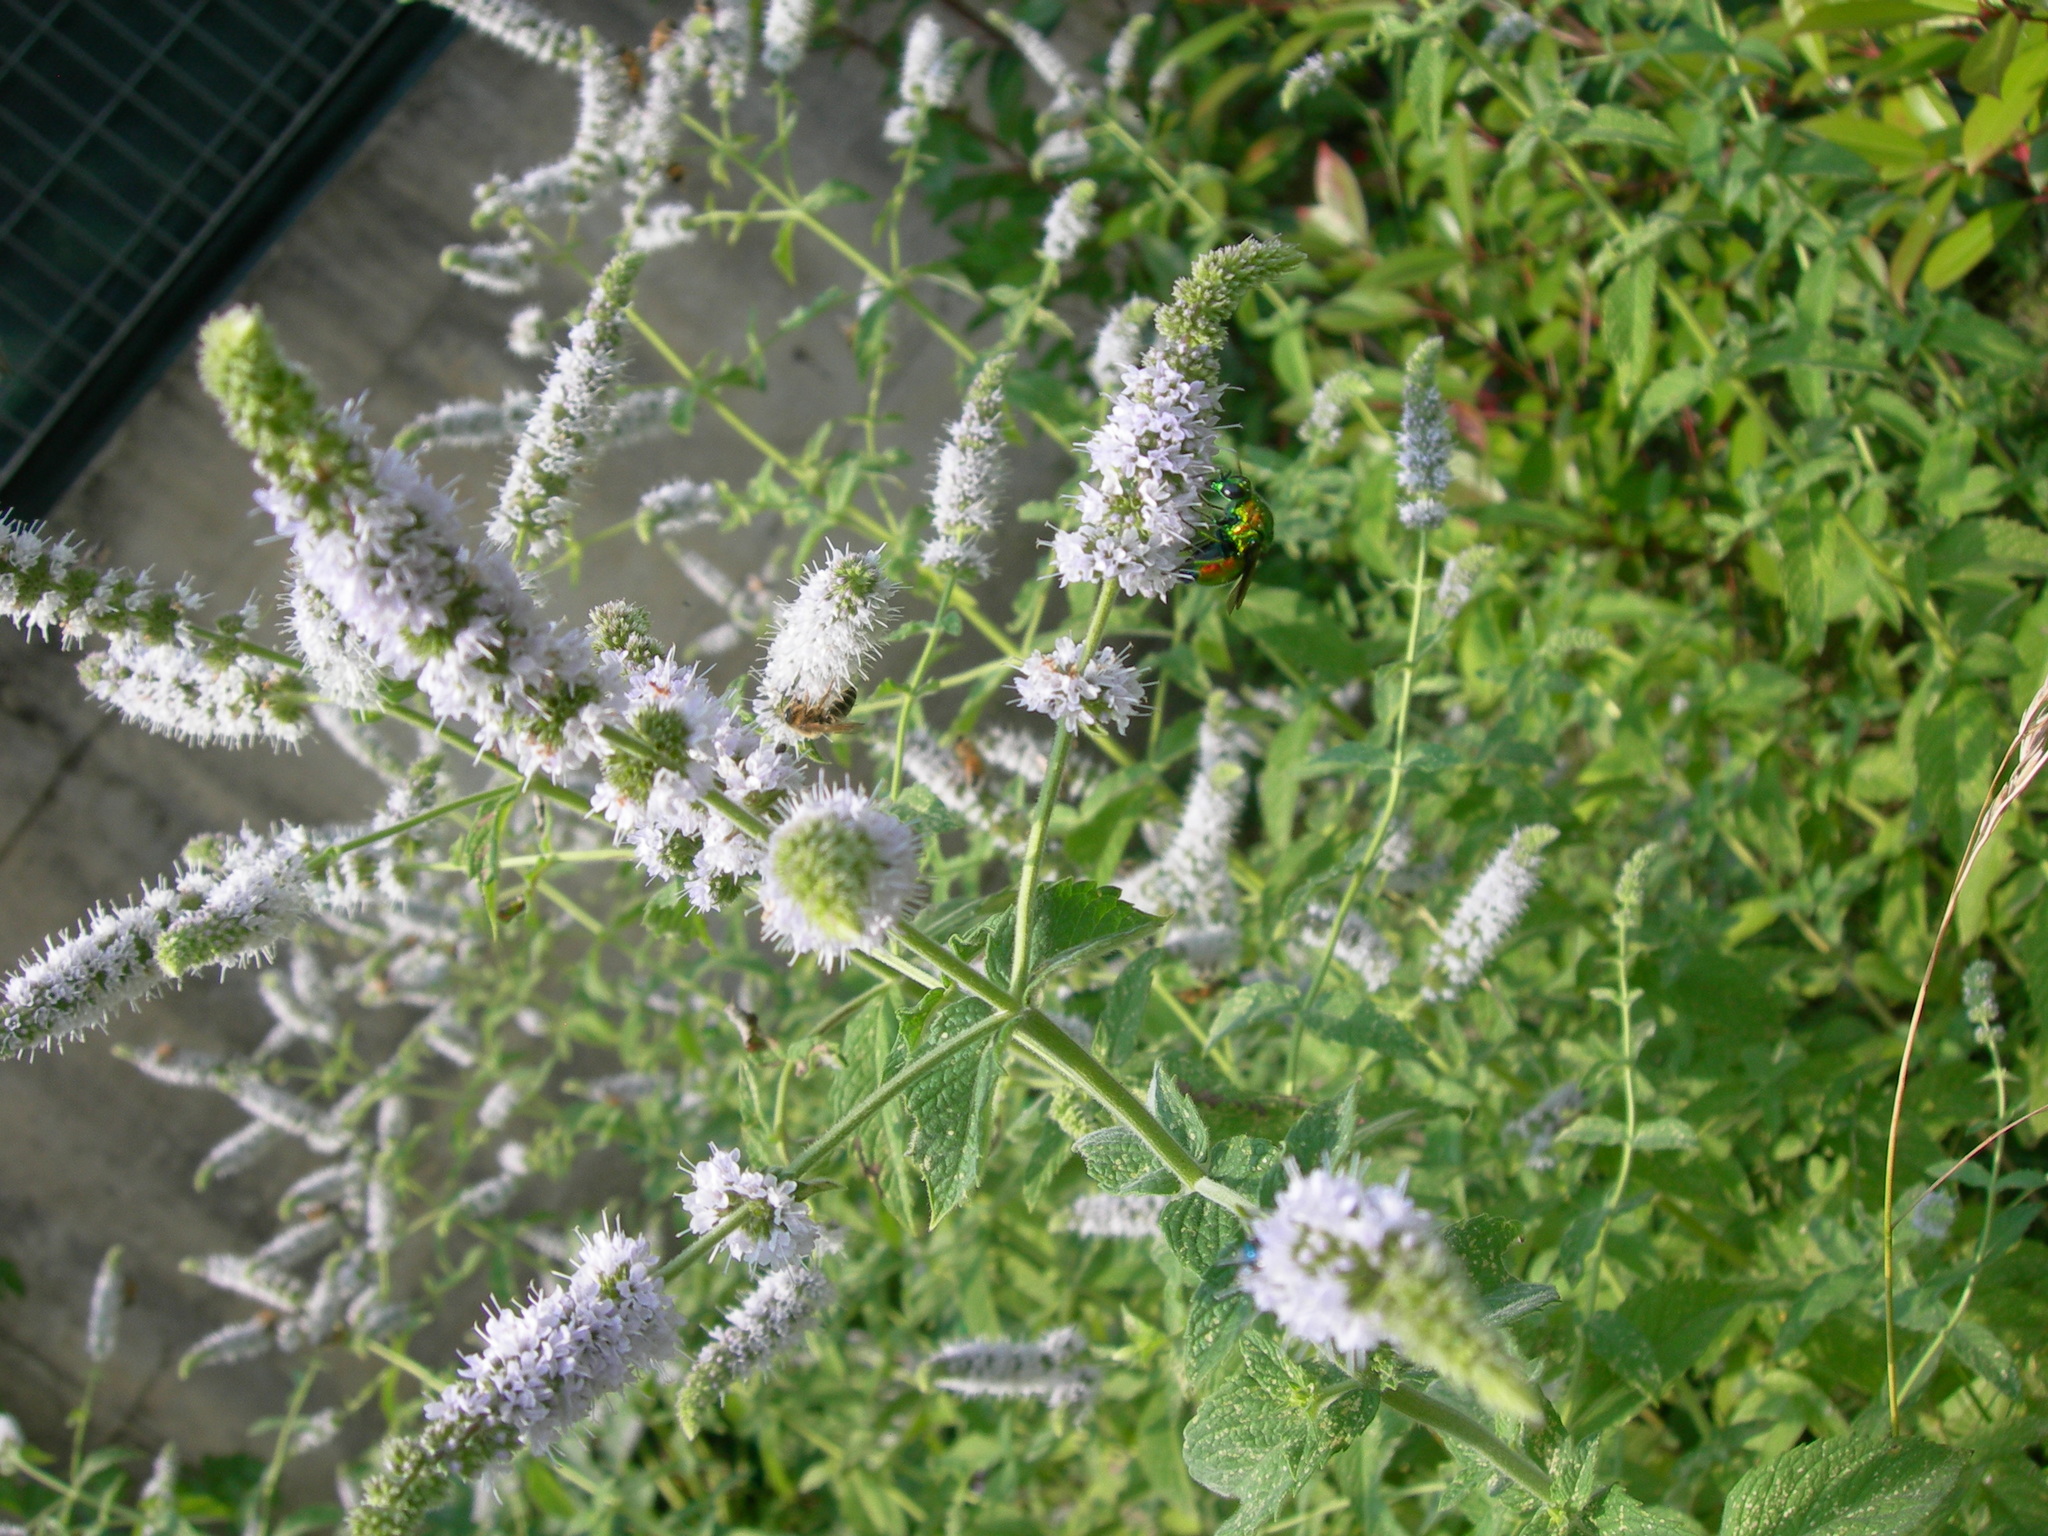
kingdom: Animalia
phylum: Arthropoda
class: Insecta
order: Hymenoptera
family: Chrysididae
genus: Stilbum
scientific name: Stilbum cyanurum
